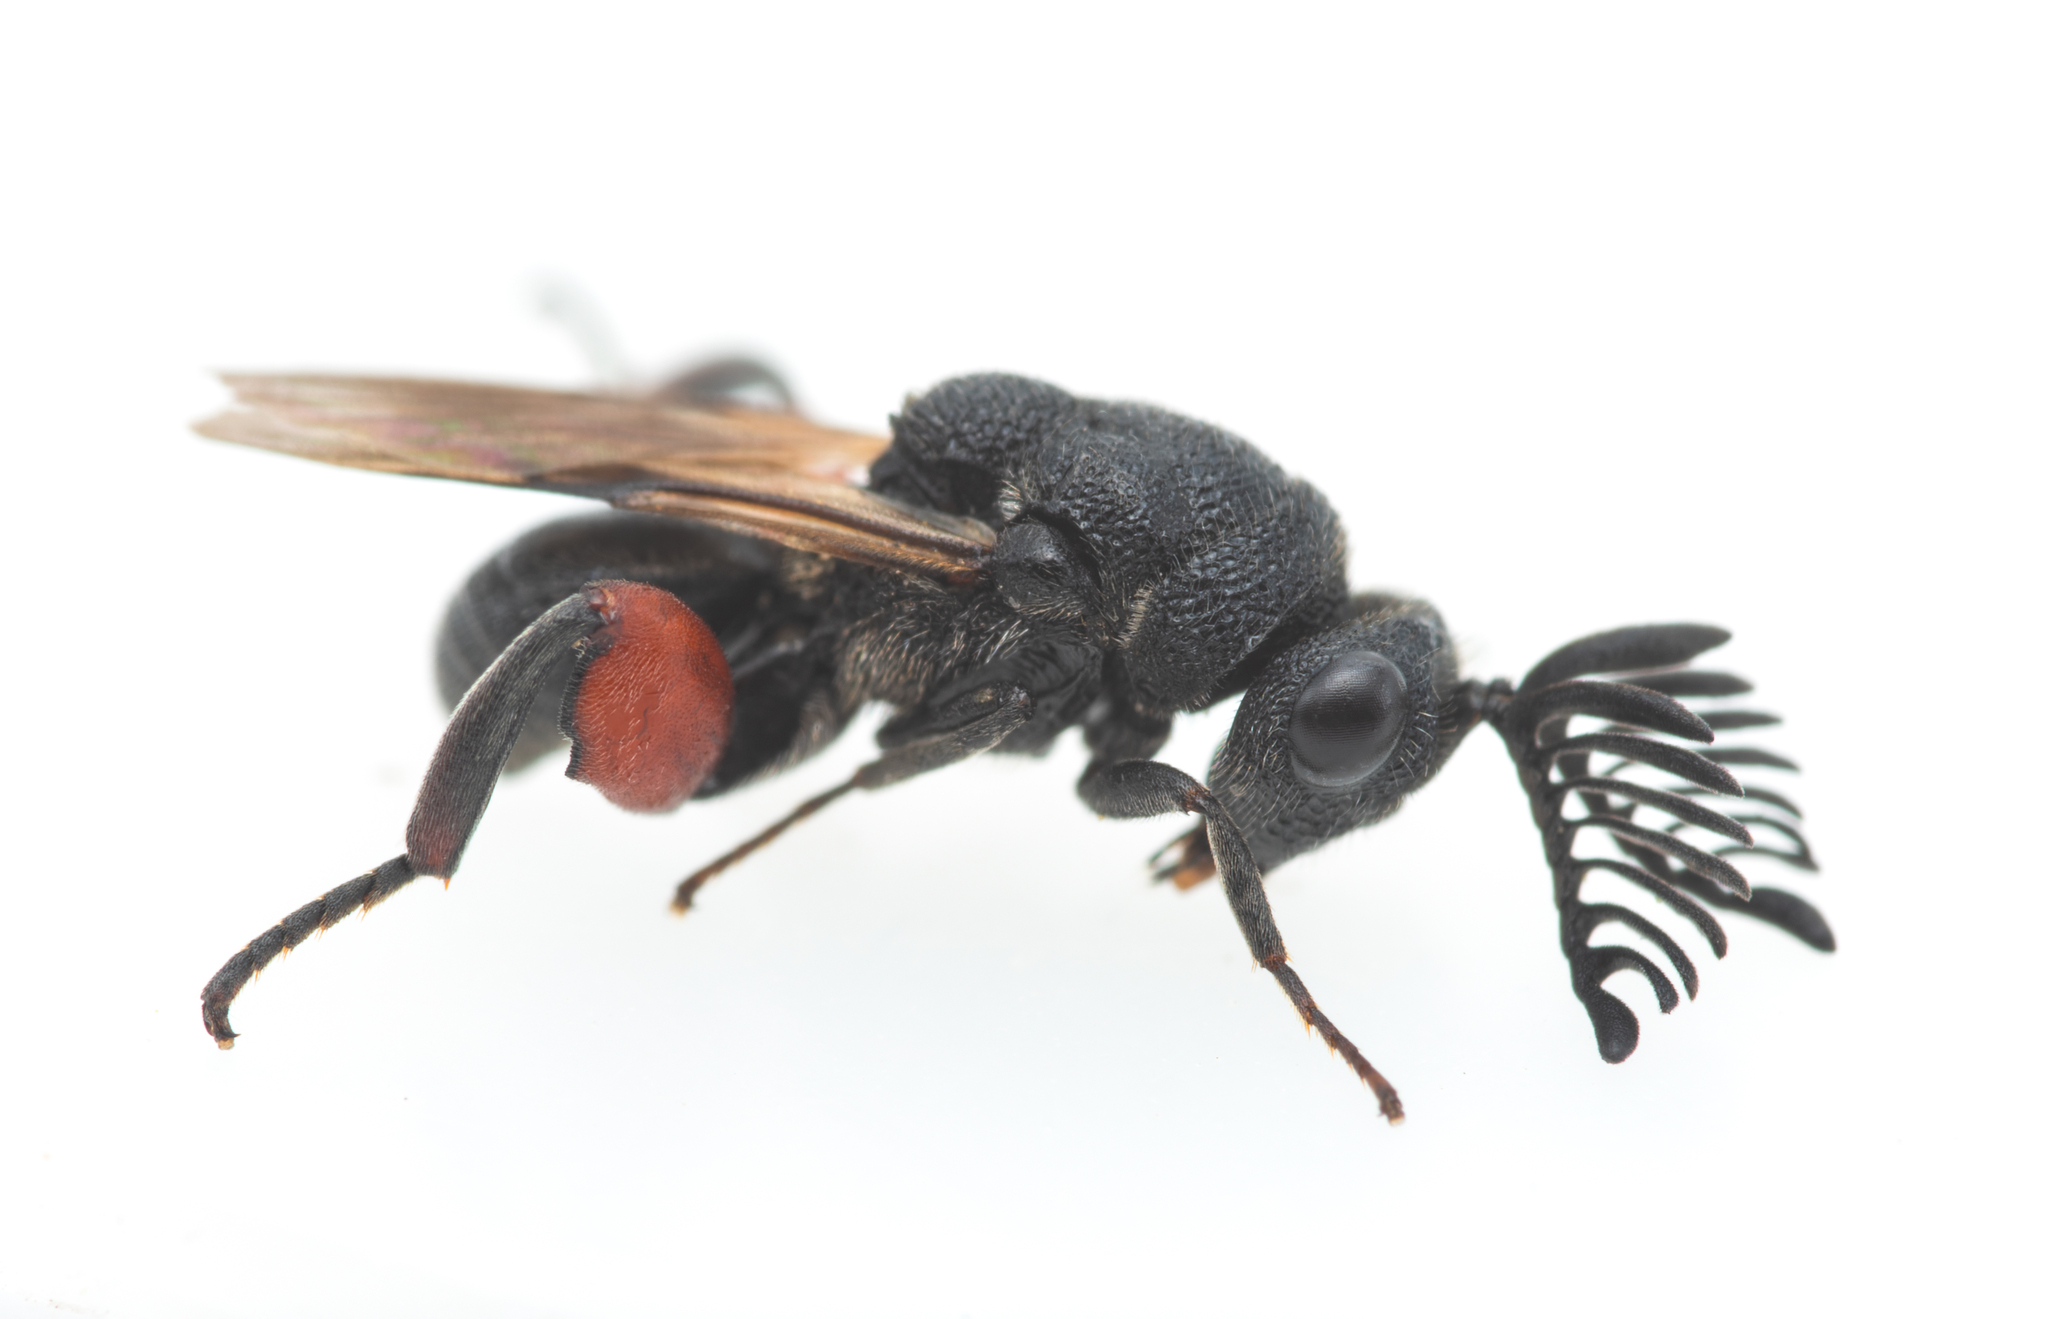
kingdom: Animalia
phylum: Arthropoda
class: Insecta
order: Hymenoptera
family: Chalcididae
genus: Chirocera
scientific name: Chirocera pectinicornis
